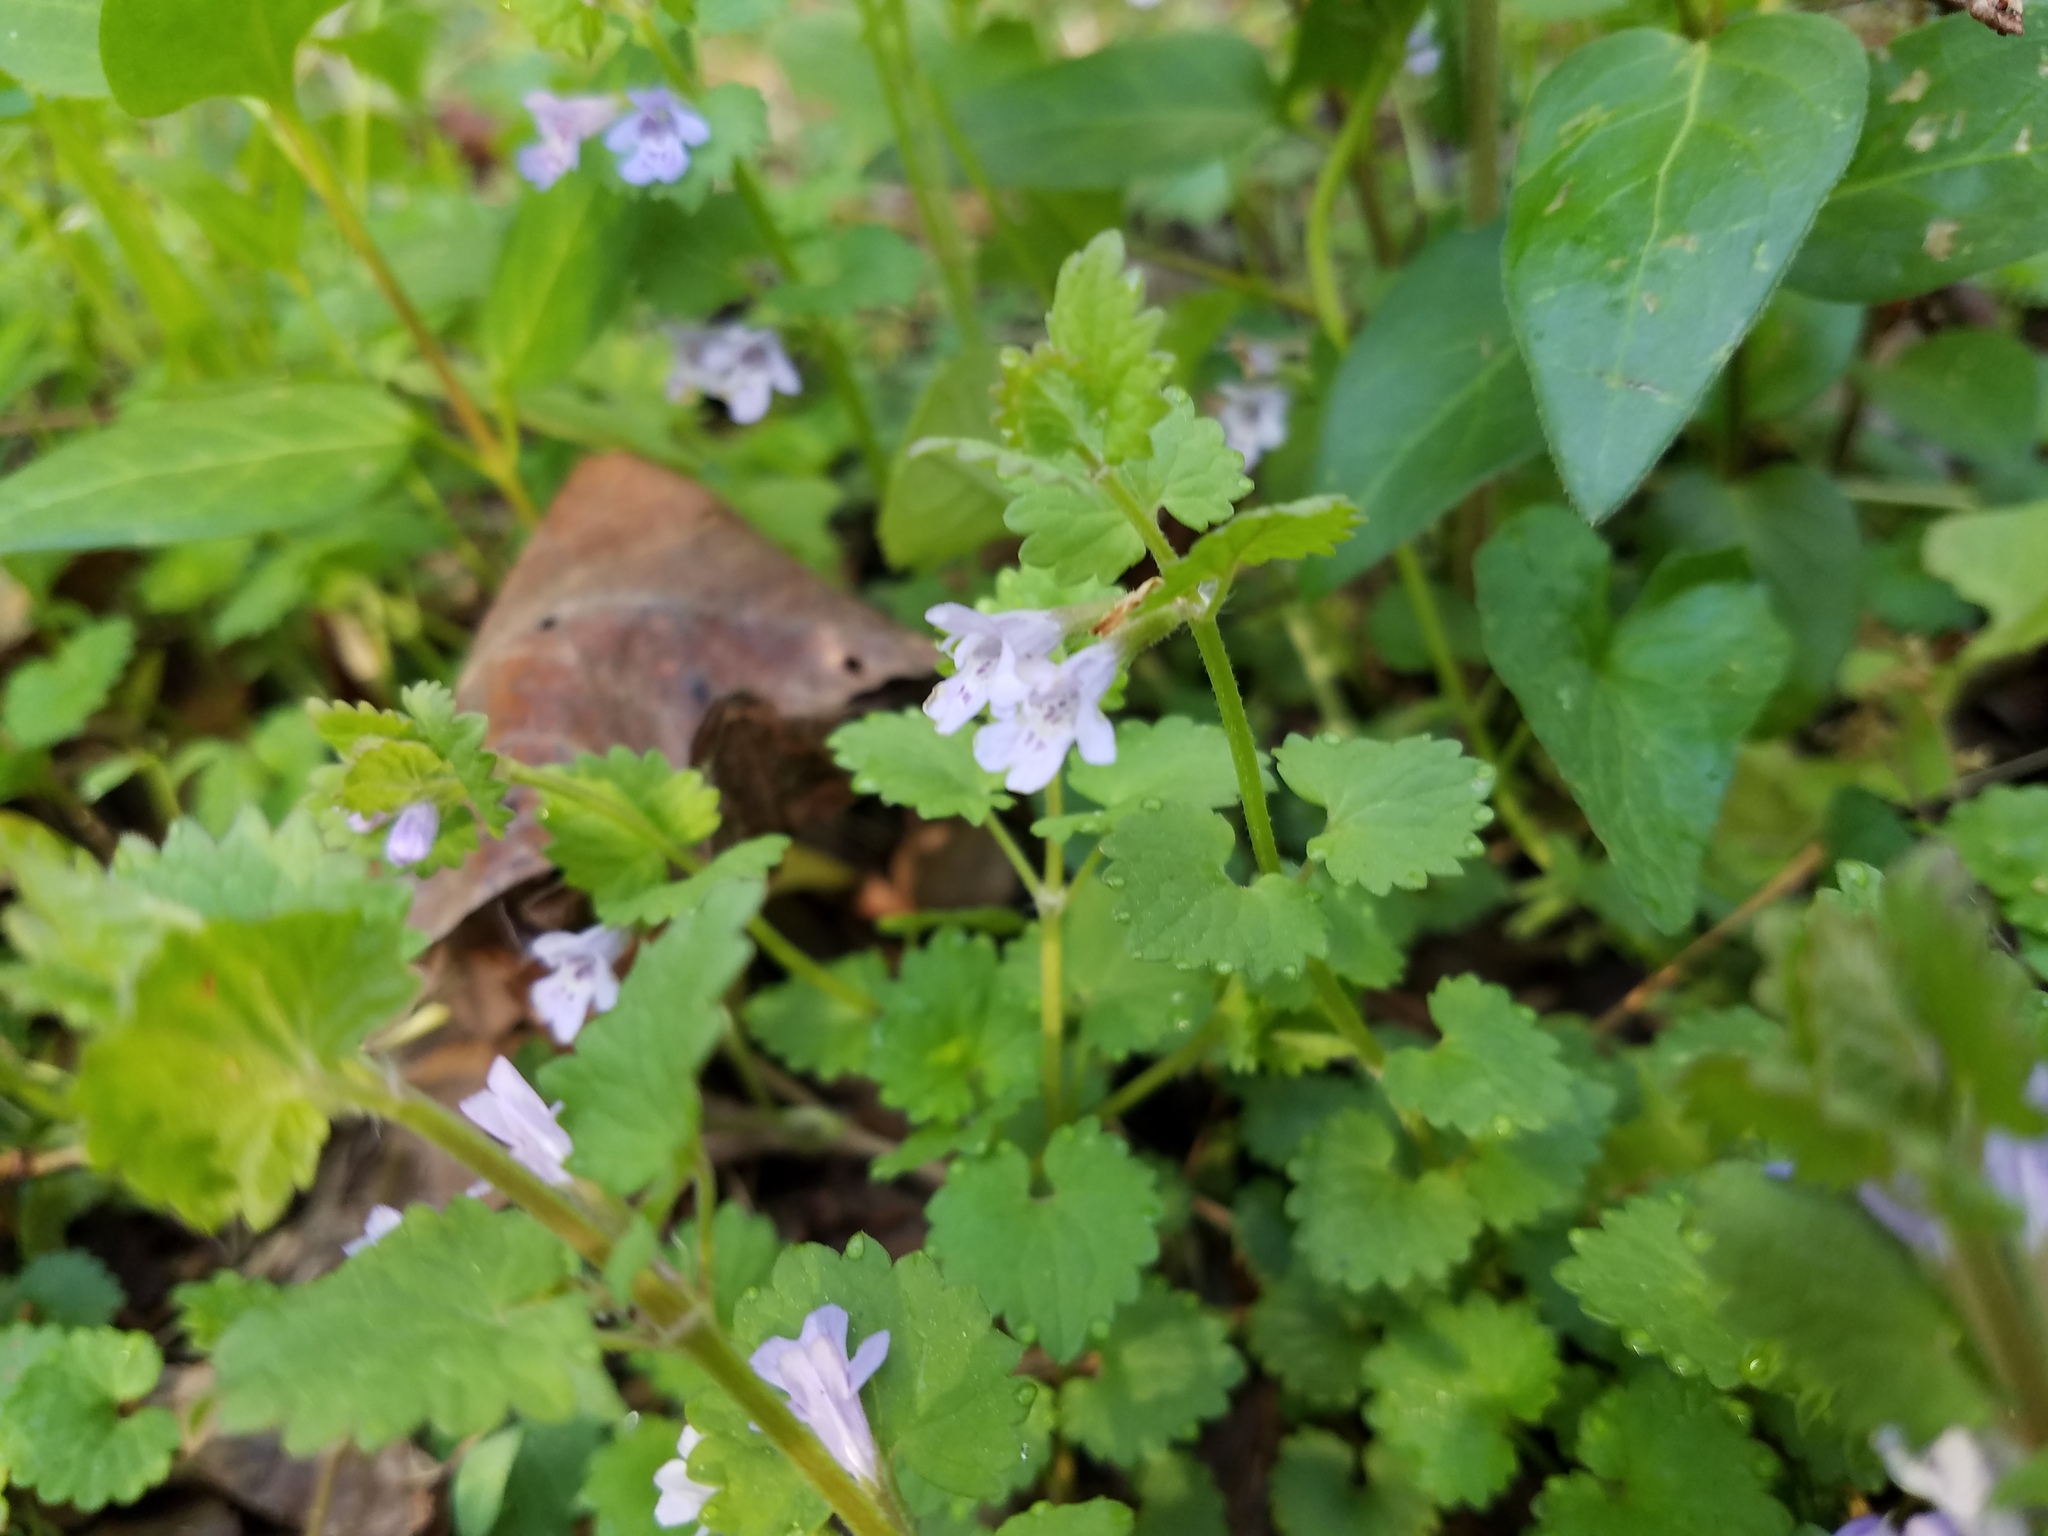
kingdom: Plantae
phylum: Tracheophyta
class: Magnoliopsida
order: Lamiales
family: Lamiaceae
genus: Glechoma
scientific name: Glechoma hederacea
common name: Ground ivy
